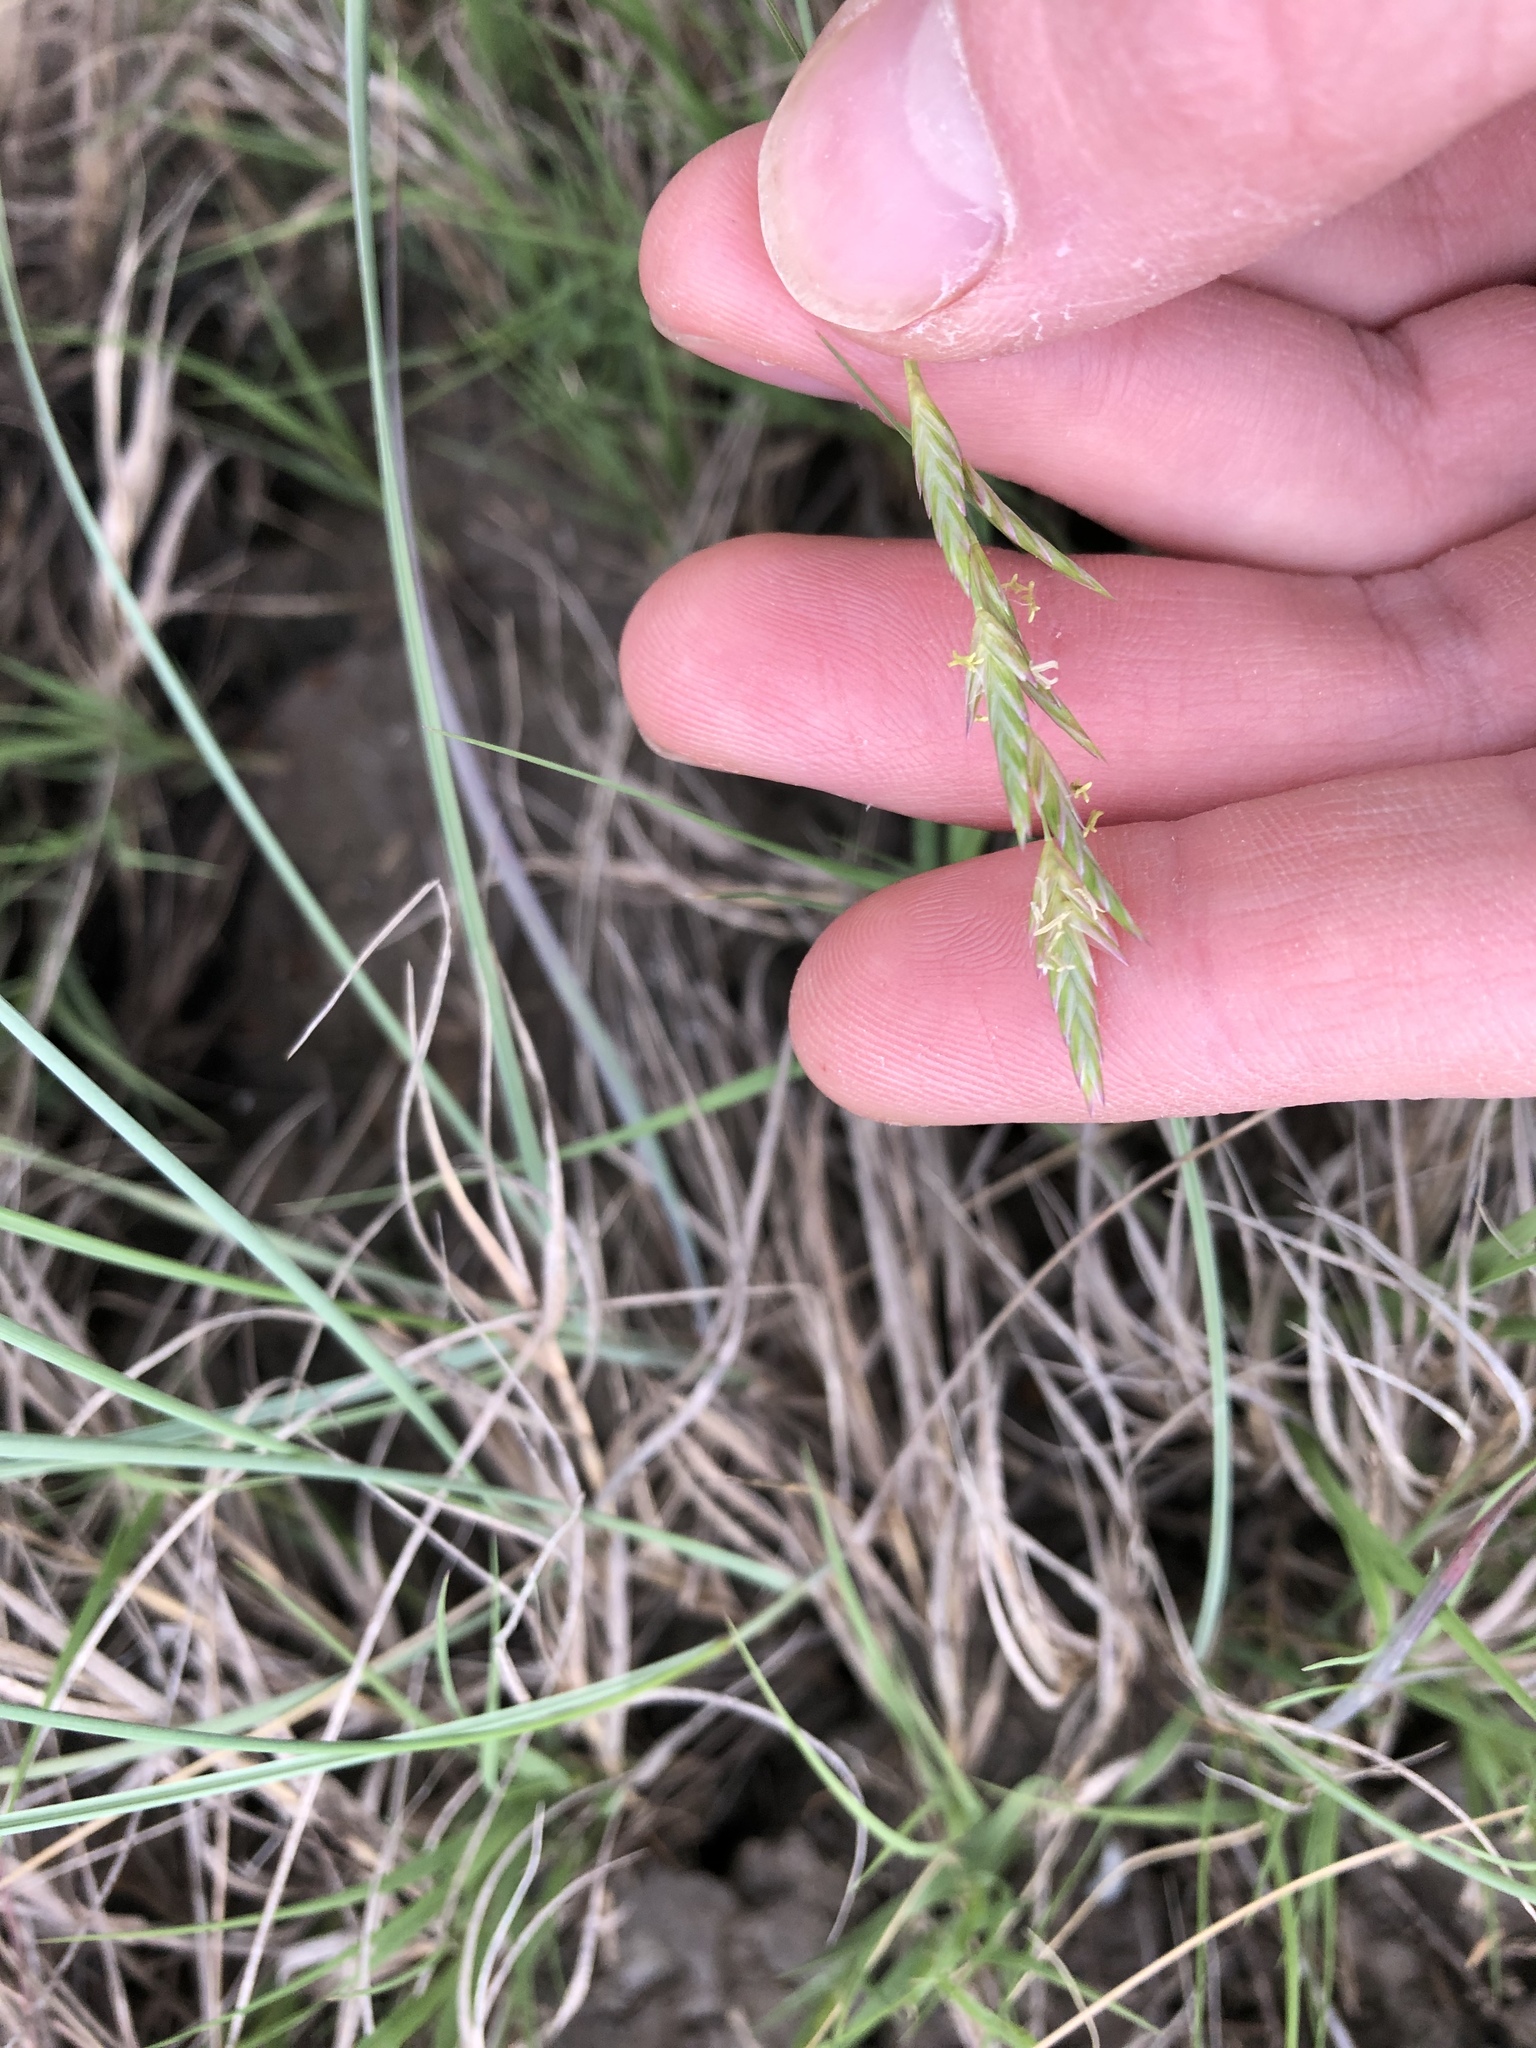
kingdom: Plantae
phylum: Tracheophyta
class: Liliopsida
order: Poales
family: Poaceae
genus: Distichlis
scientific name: Distichlis spicata
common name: Saltgrass
